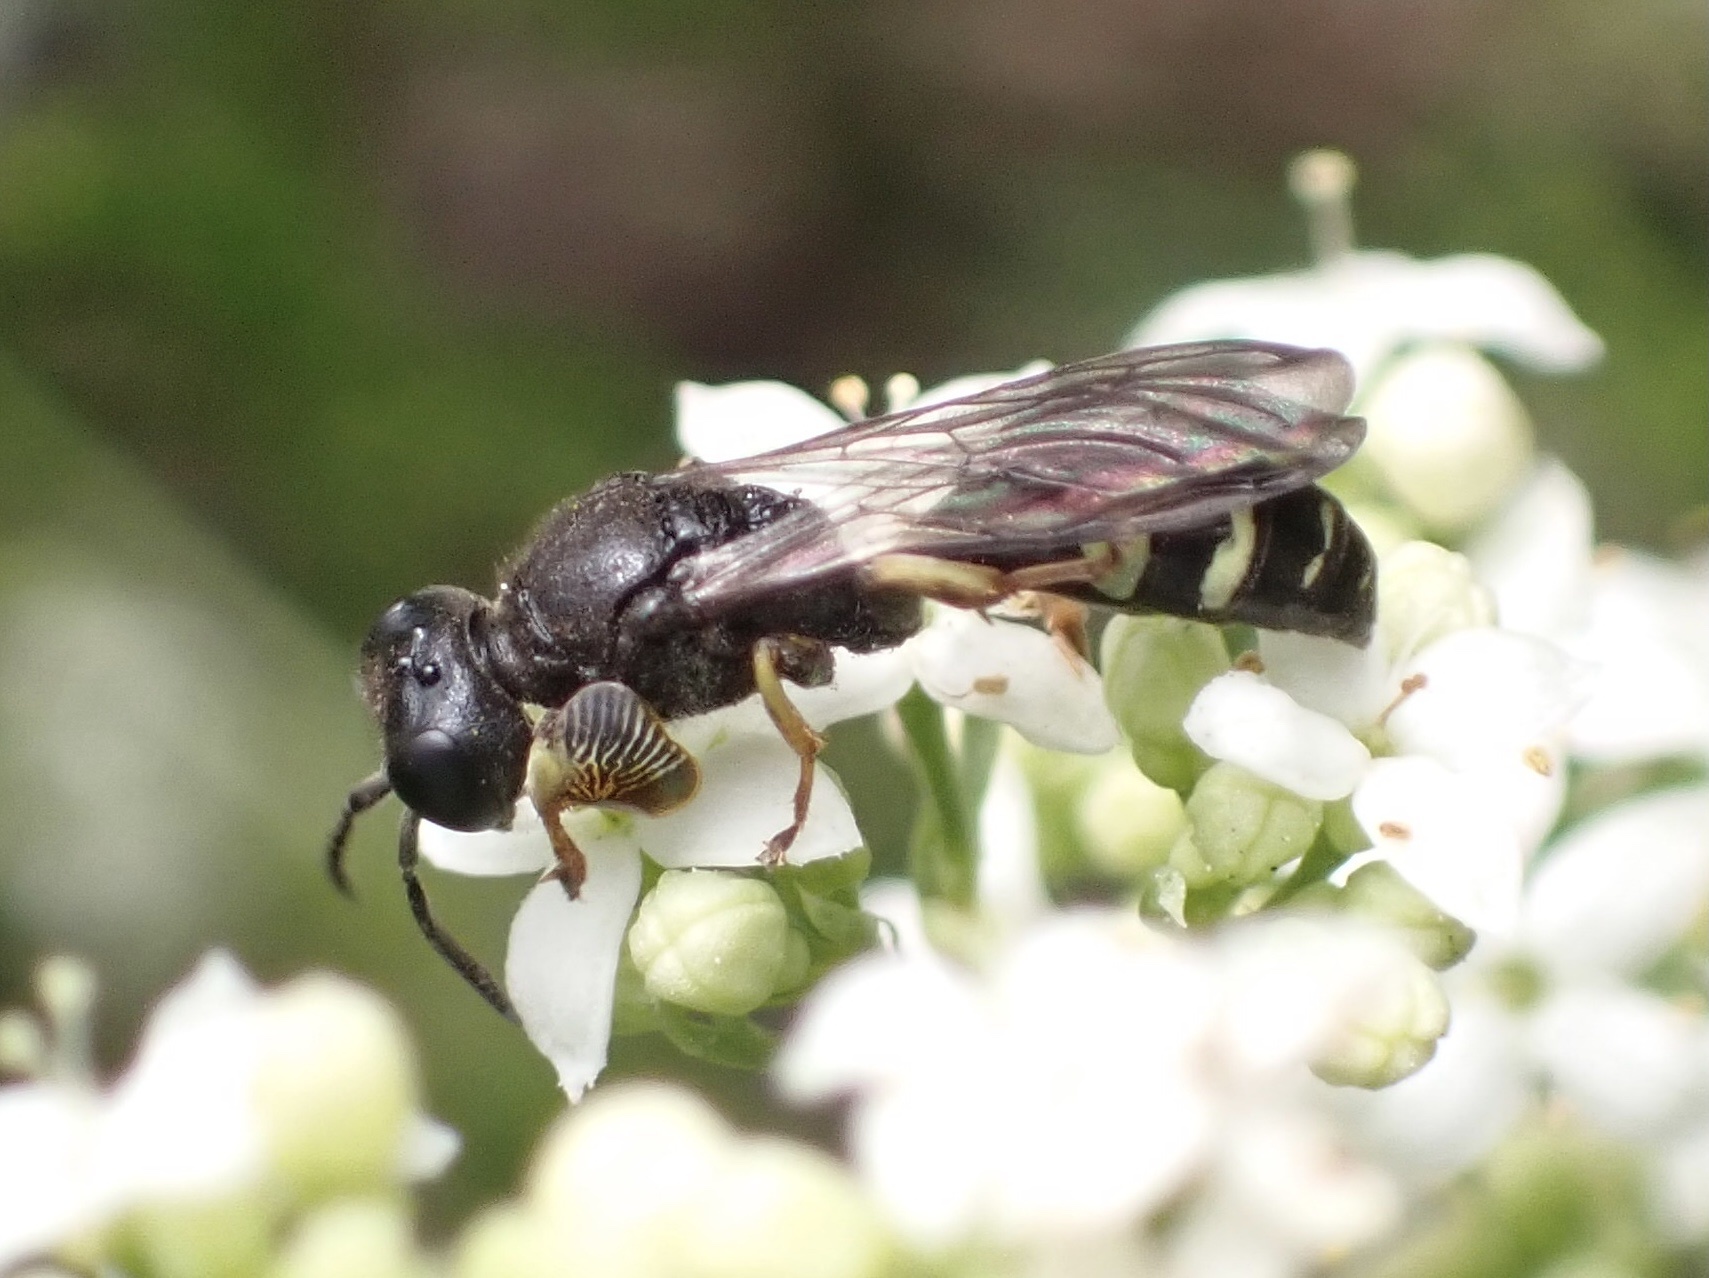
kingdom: Animalia
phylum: Arthropoda
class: Insecta
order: Hymenoptera
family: Crabronidae
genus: Crabro
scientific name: Crabro scutellatus
